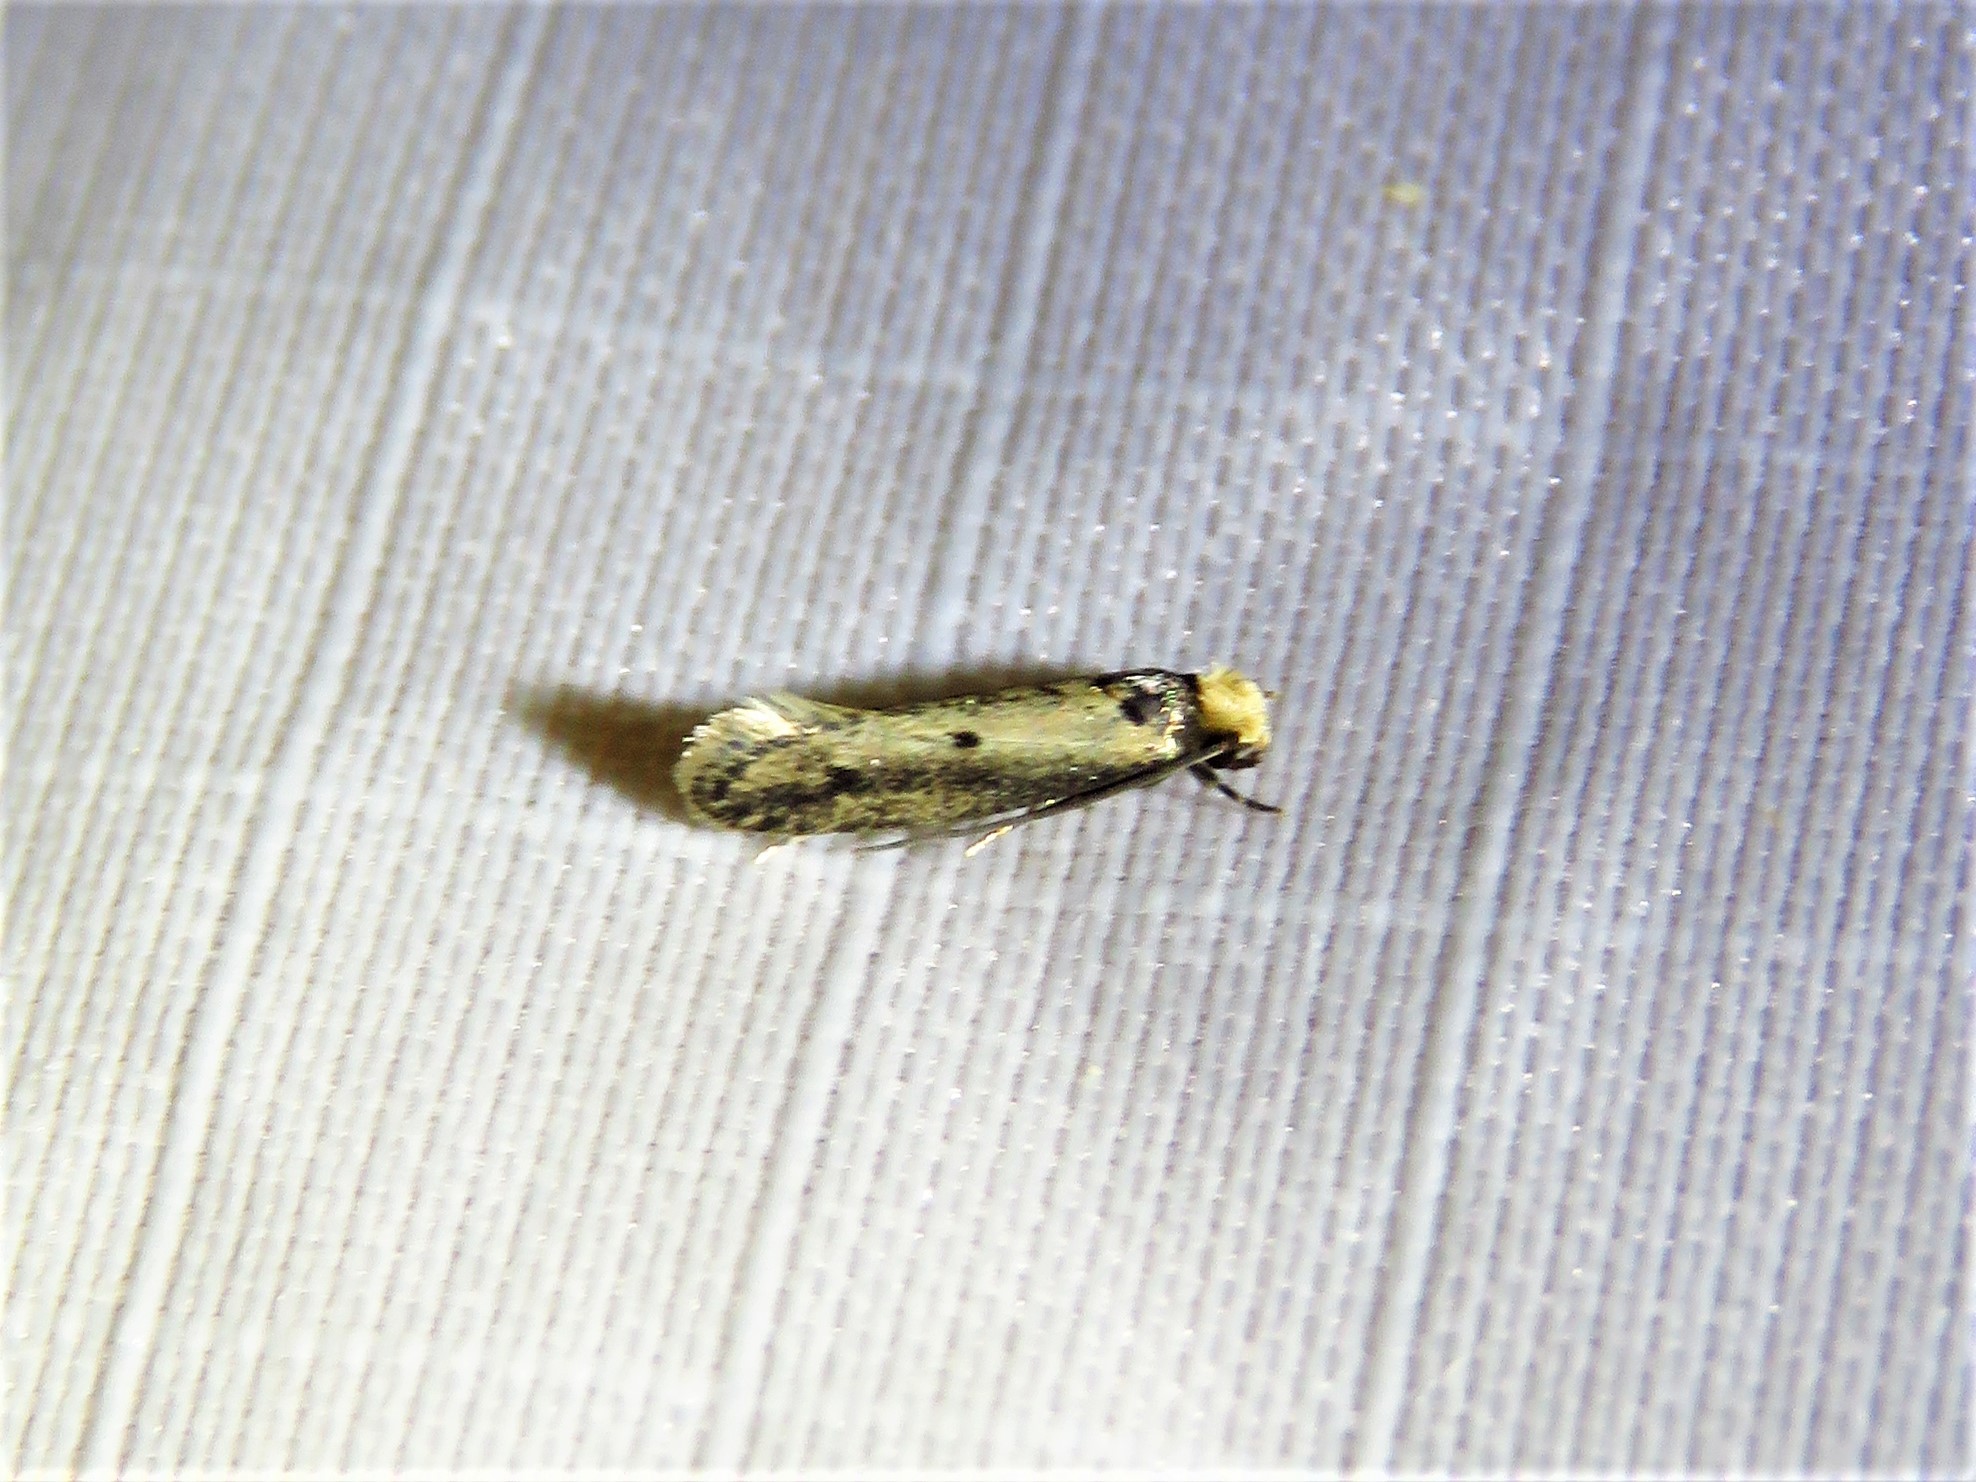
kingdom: Animalia
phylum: Arthropoda
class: Insecta
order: Lepidoptera
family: Tineidae
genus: Tinea
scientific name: Tinea apicimaculella
